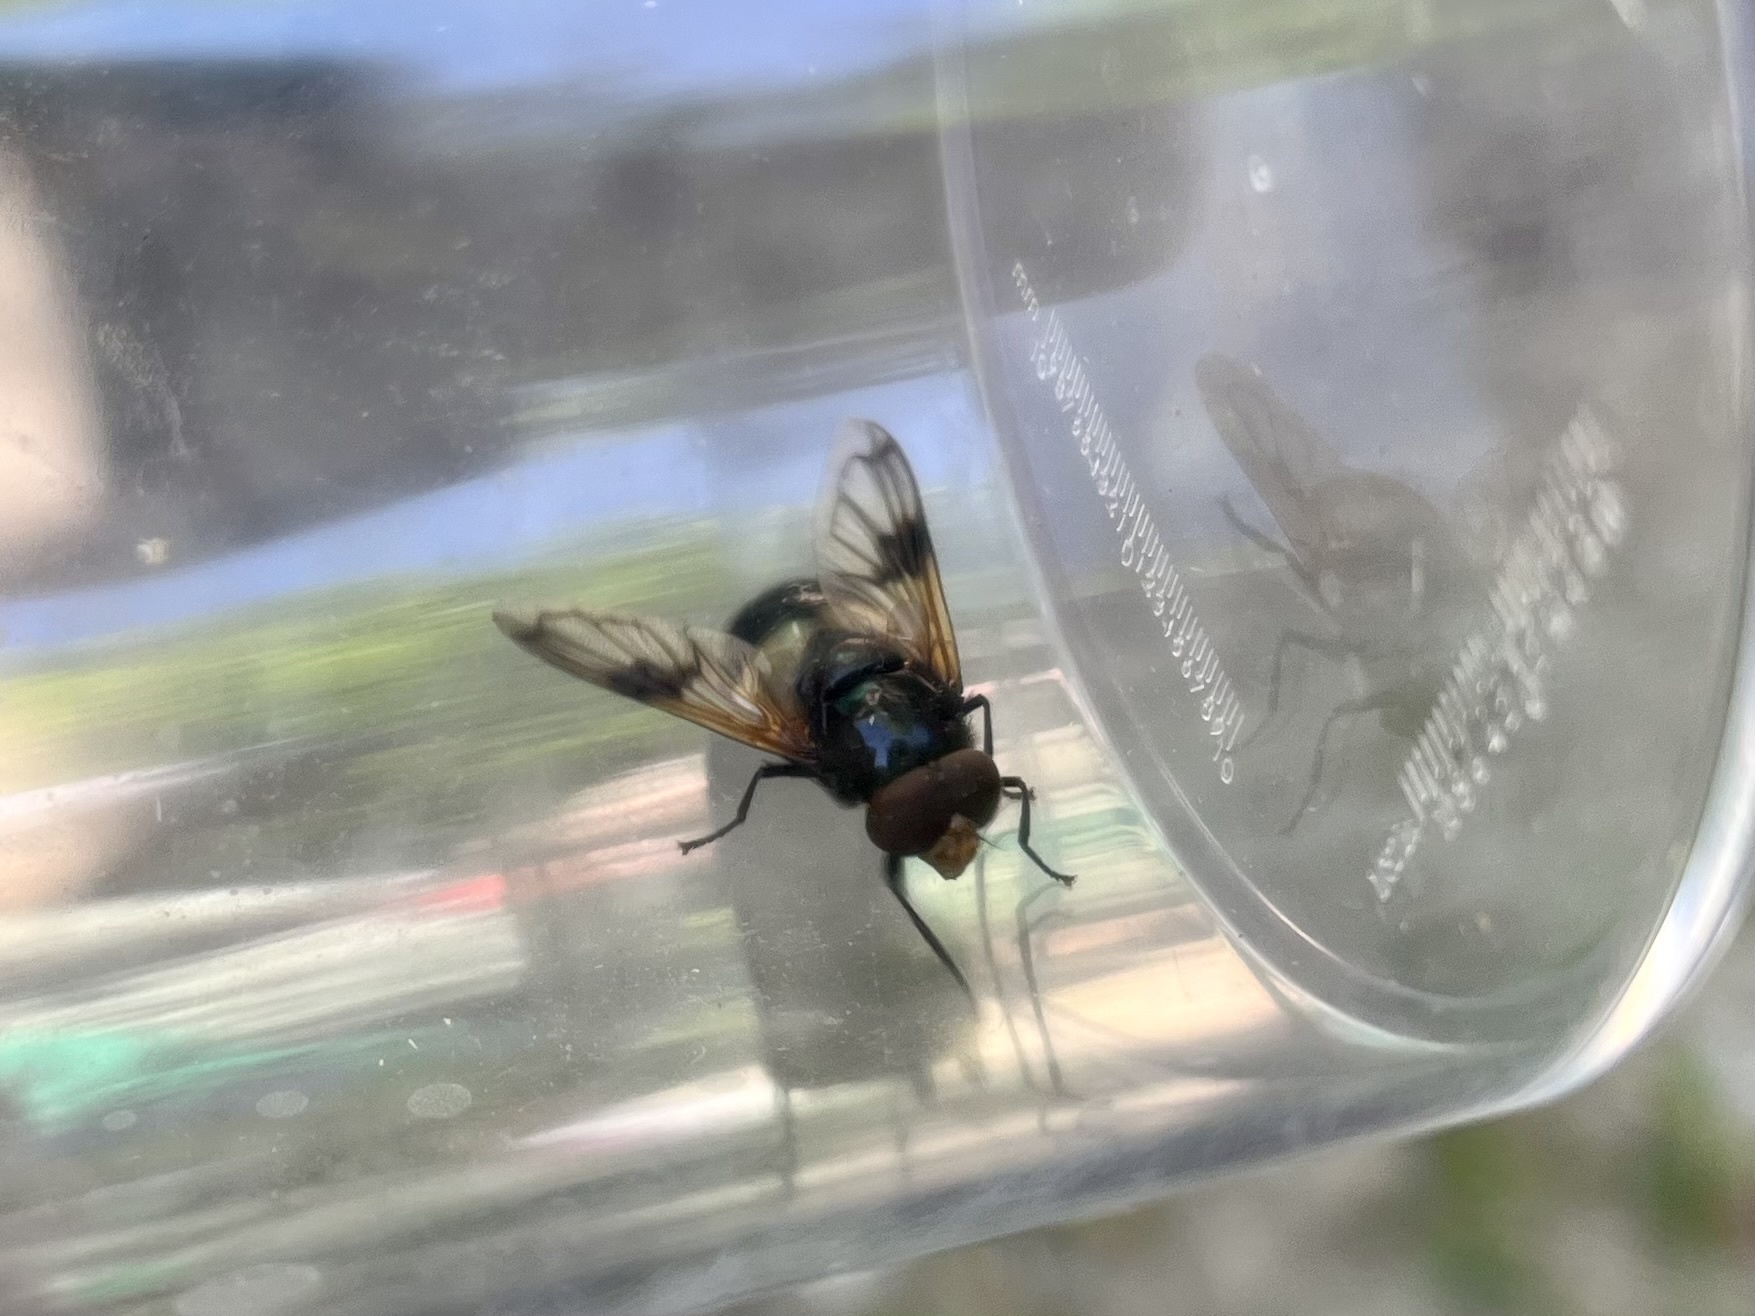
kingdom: Animalia
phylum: Arthropoda
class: Insecta
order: Diptera
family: Syrphidae
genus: Volucella
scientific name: Volucella pellucens
